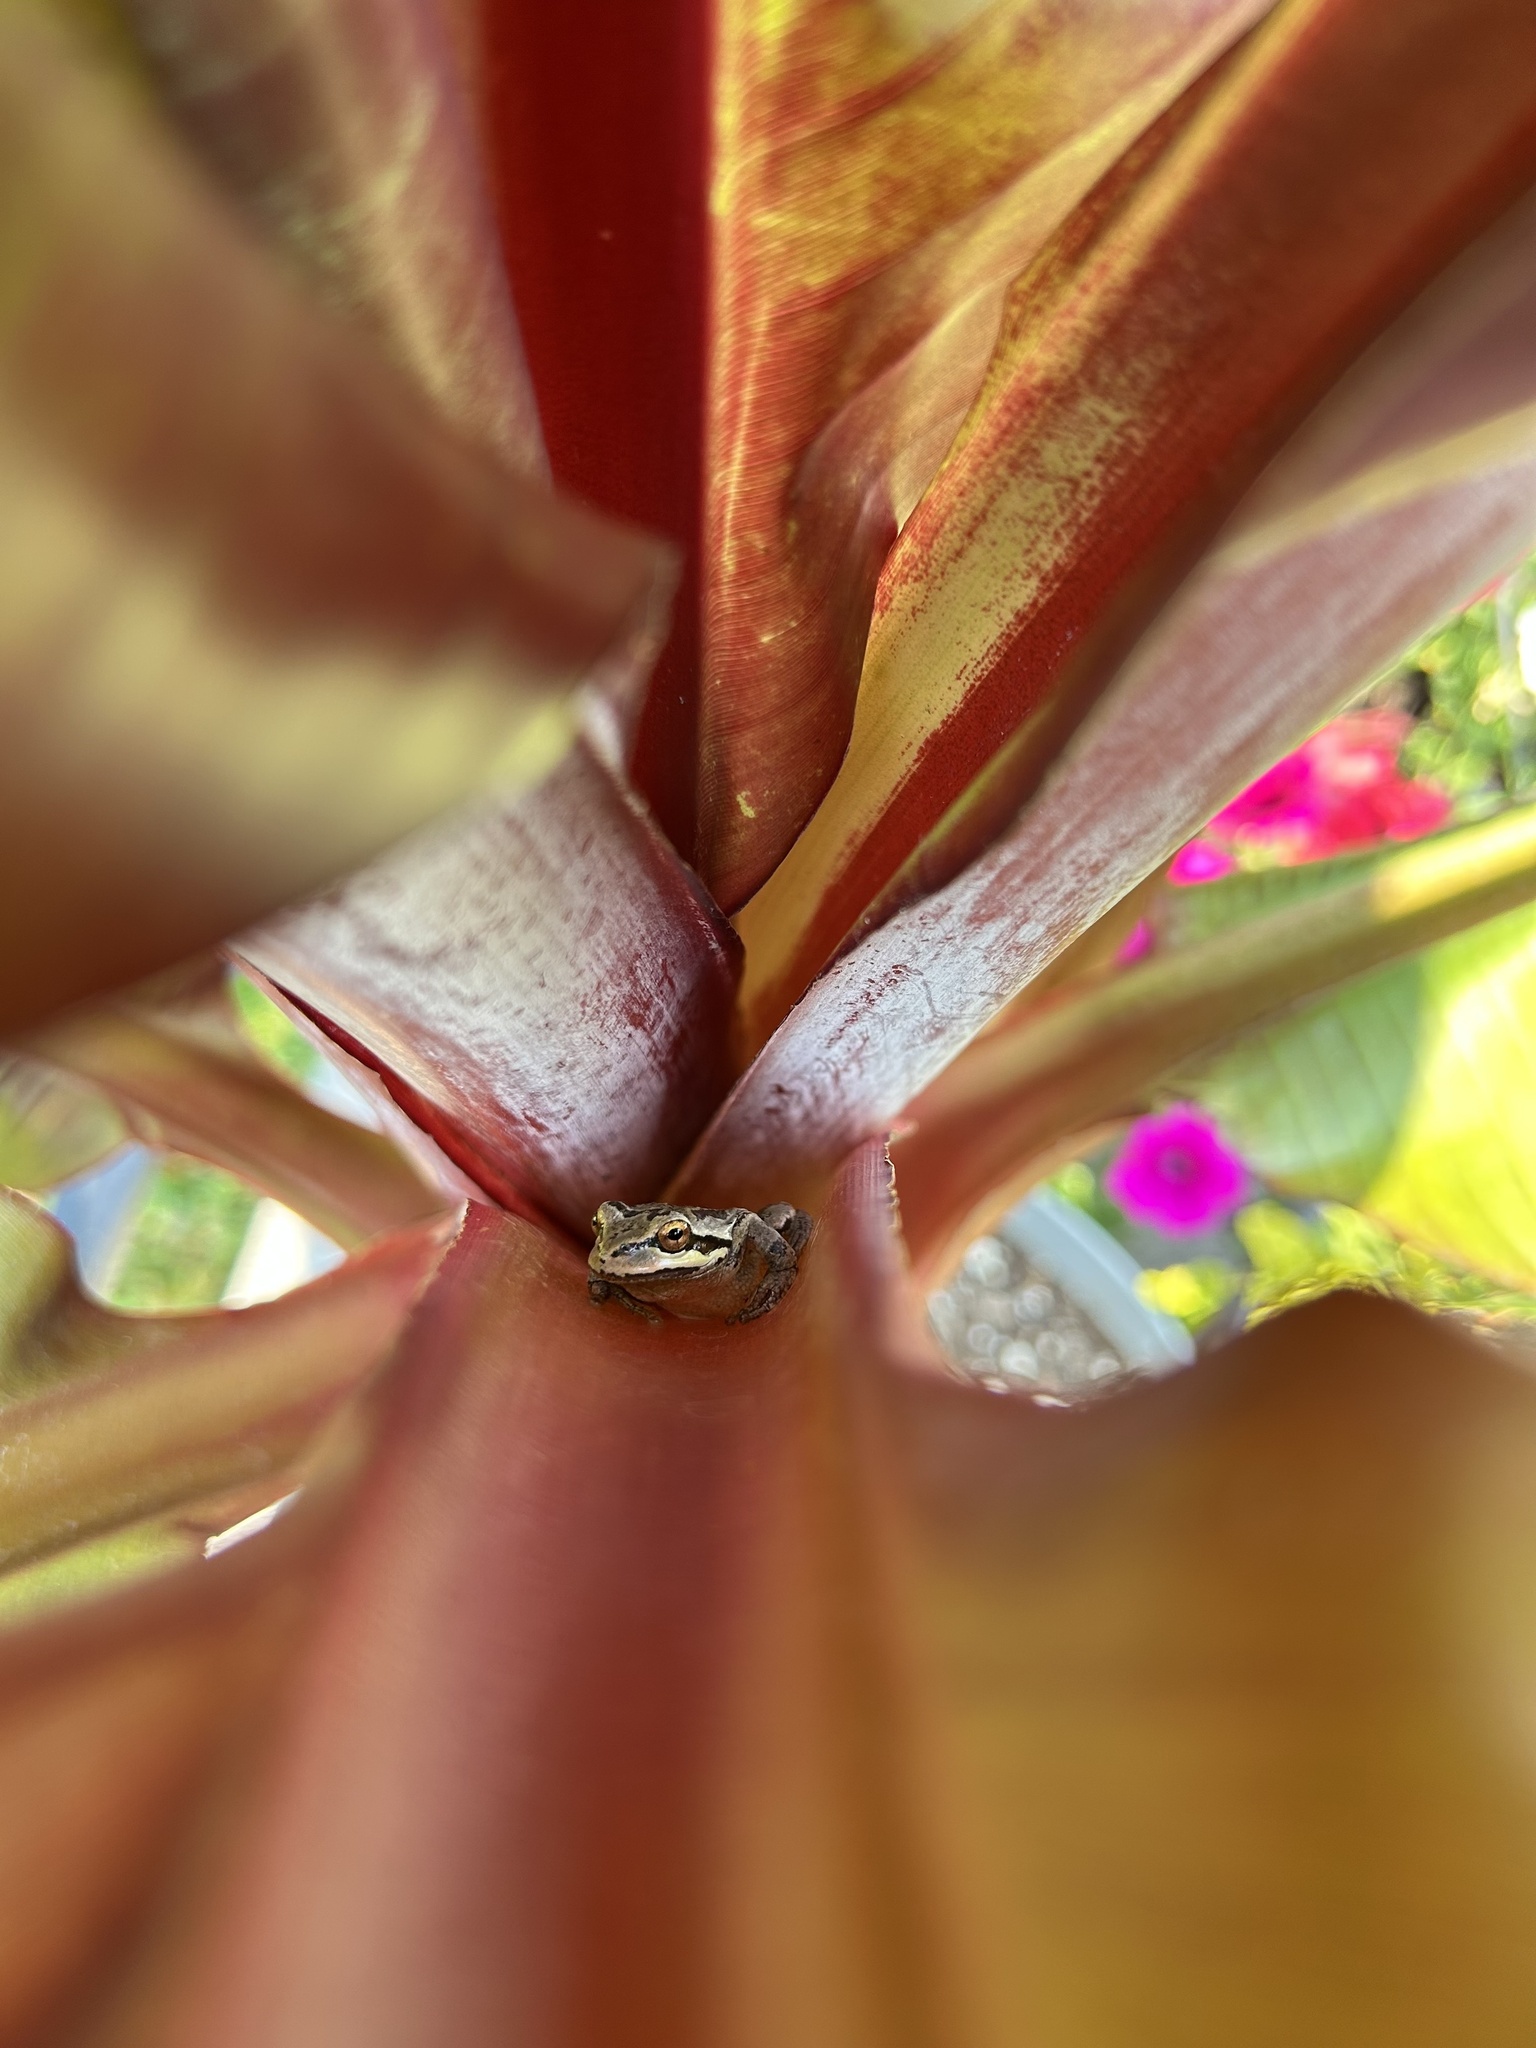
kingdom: Animalia
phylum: Chordata
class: Amphibia
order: Anura
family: Hylidae
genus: Pseudacris
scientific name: Pseudacris regilla
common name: Pacific chorus frog
